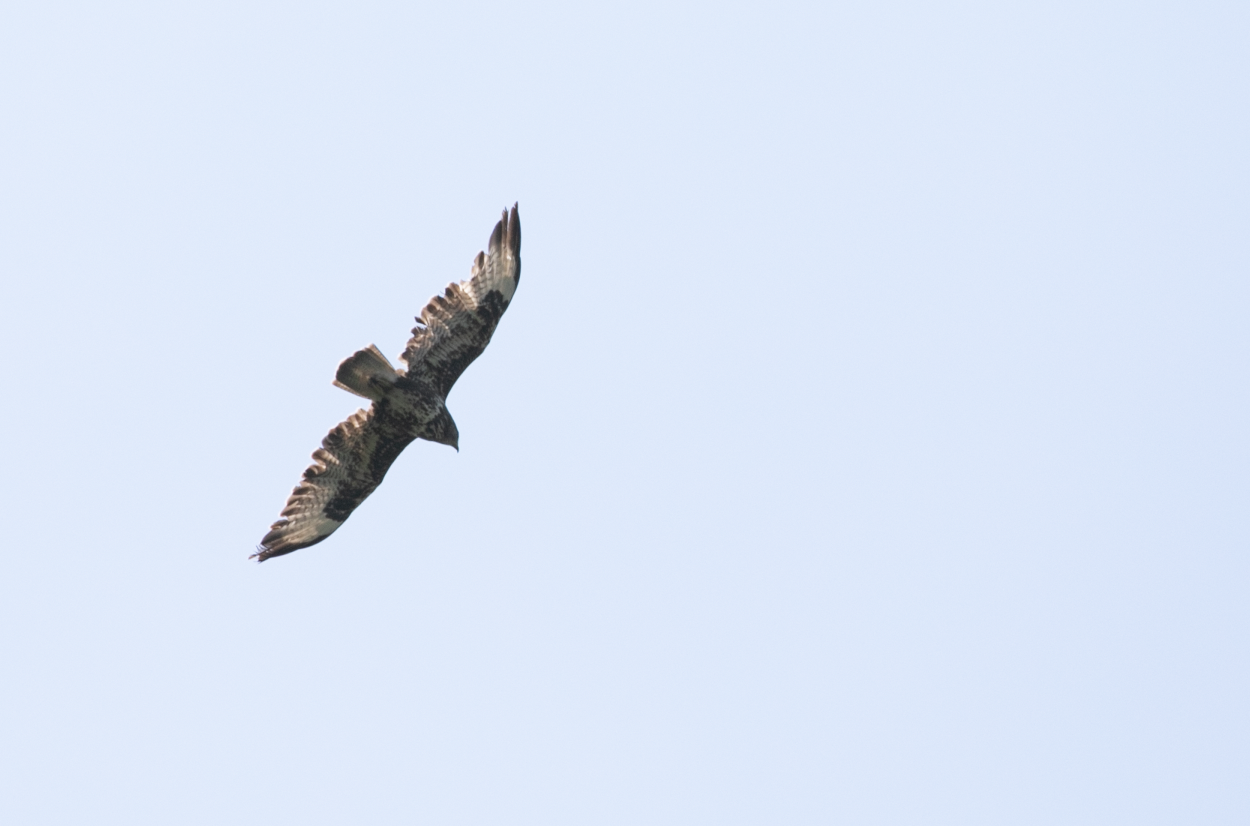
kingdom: Animalia
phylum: Chordata
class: Aves
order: Accipitriformes
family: Accipitridae
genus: Buteo
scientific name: Buteo buteo
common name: Common buzzard
